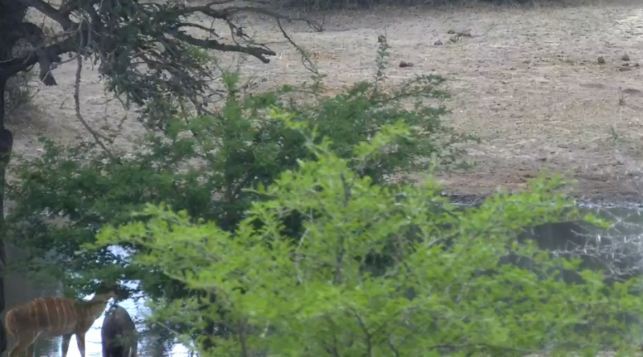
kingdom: Animalia
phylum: Chordata
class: Mammalia
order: Artiodactyla
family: Bovidae
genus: Tragelaphus
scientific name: Tragelaphus angasii
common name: Nyala
